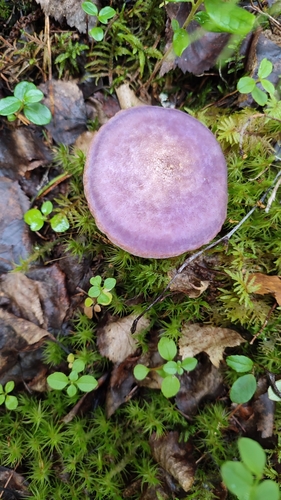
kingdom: Fungi
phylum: Basidiomycota
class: Agaricomycetes
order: Agaricales
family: Cortinariaceae
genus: Cortinarius
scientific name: Cortinarius camphoratus
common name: Goatcheese webcap
